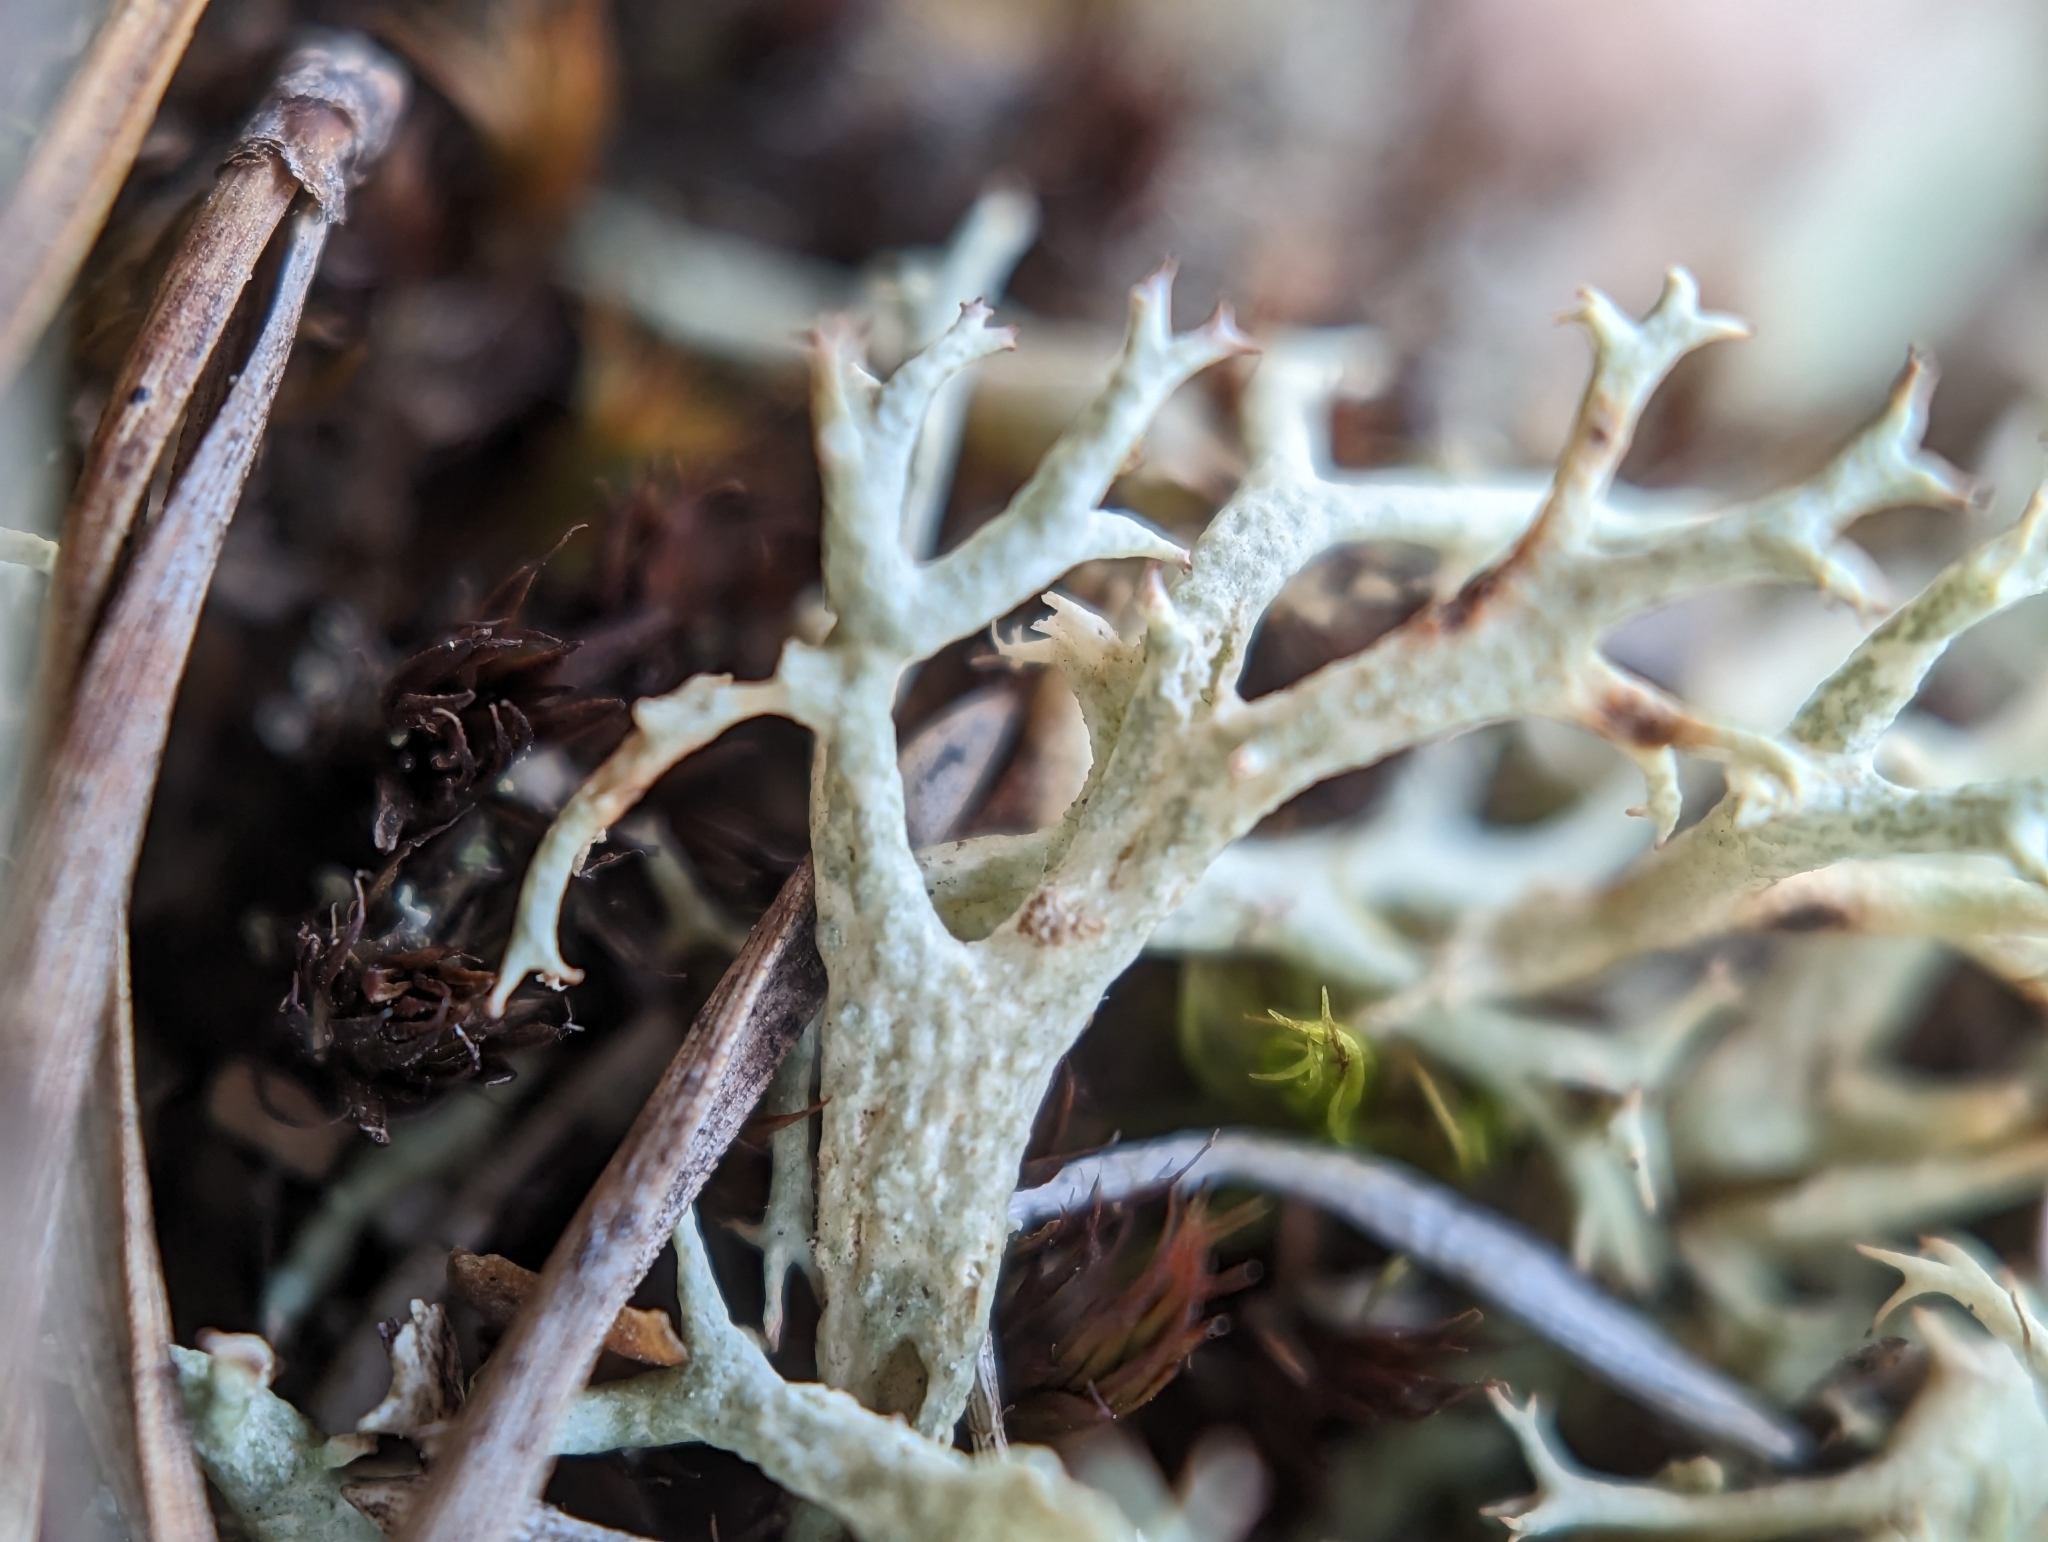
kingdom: Fungi
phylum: Ascomycota
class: Lecanoromycetes
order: Lecanorales
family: Cladoniaceae
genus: Cladonia
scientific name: Cladonia uncialis
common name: Thorn lichen
